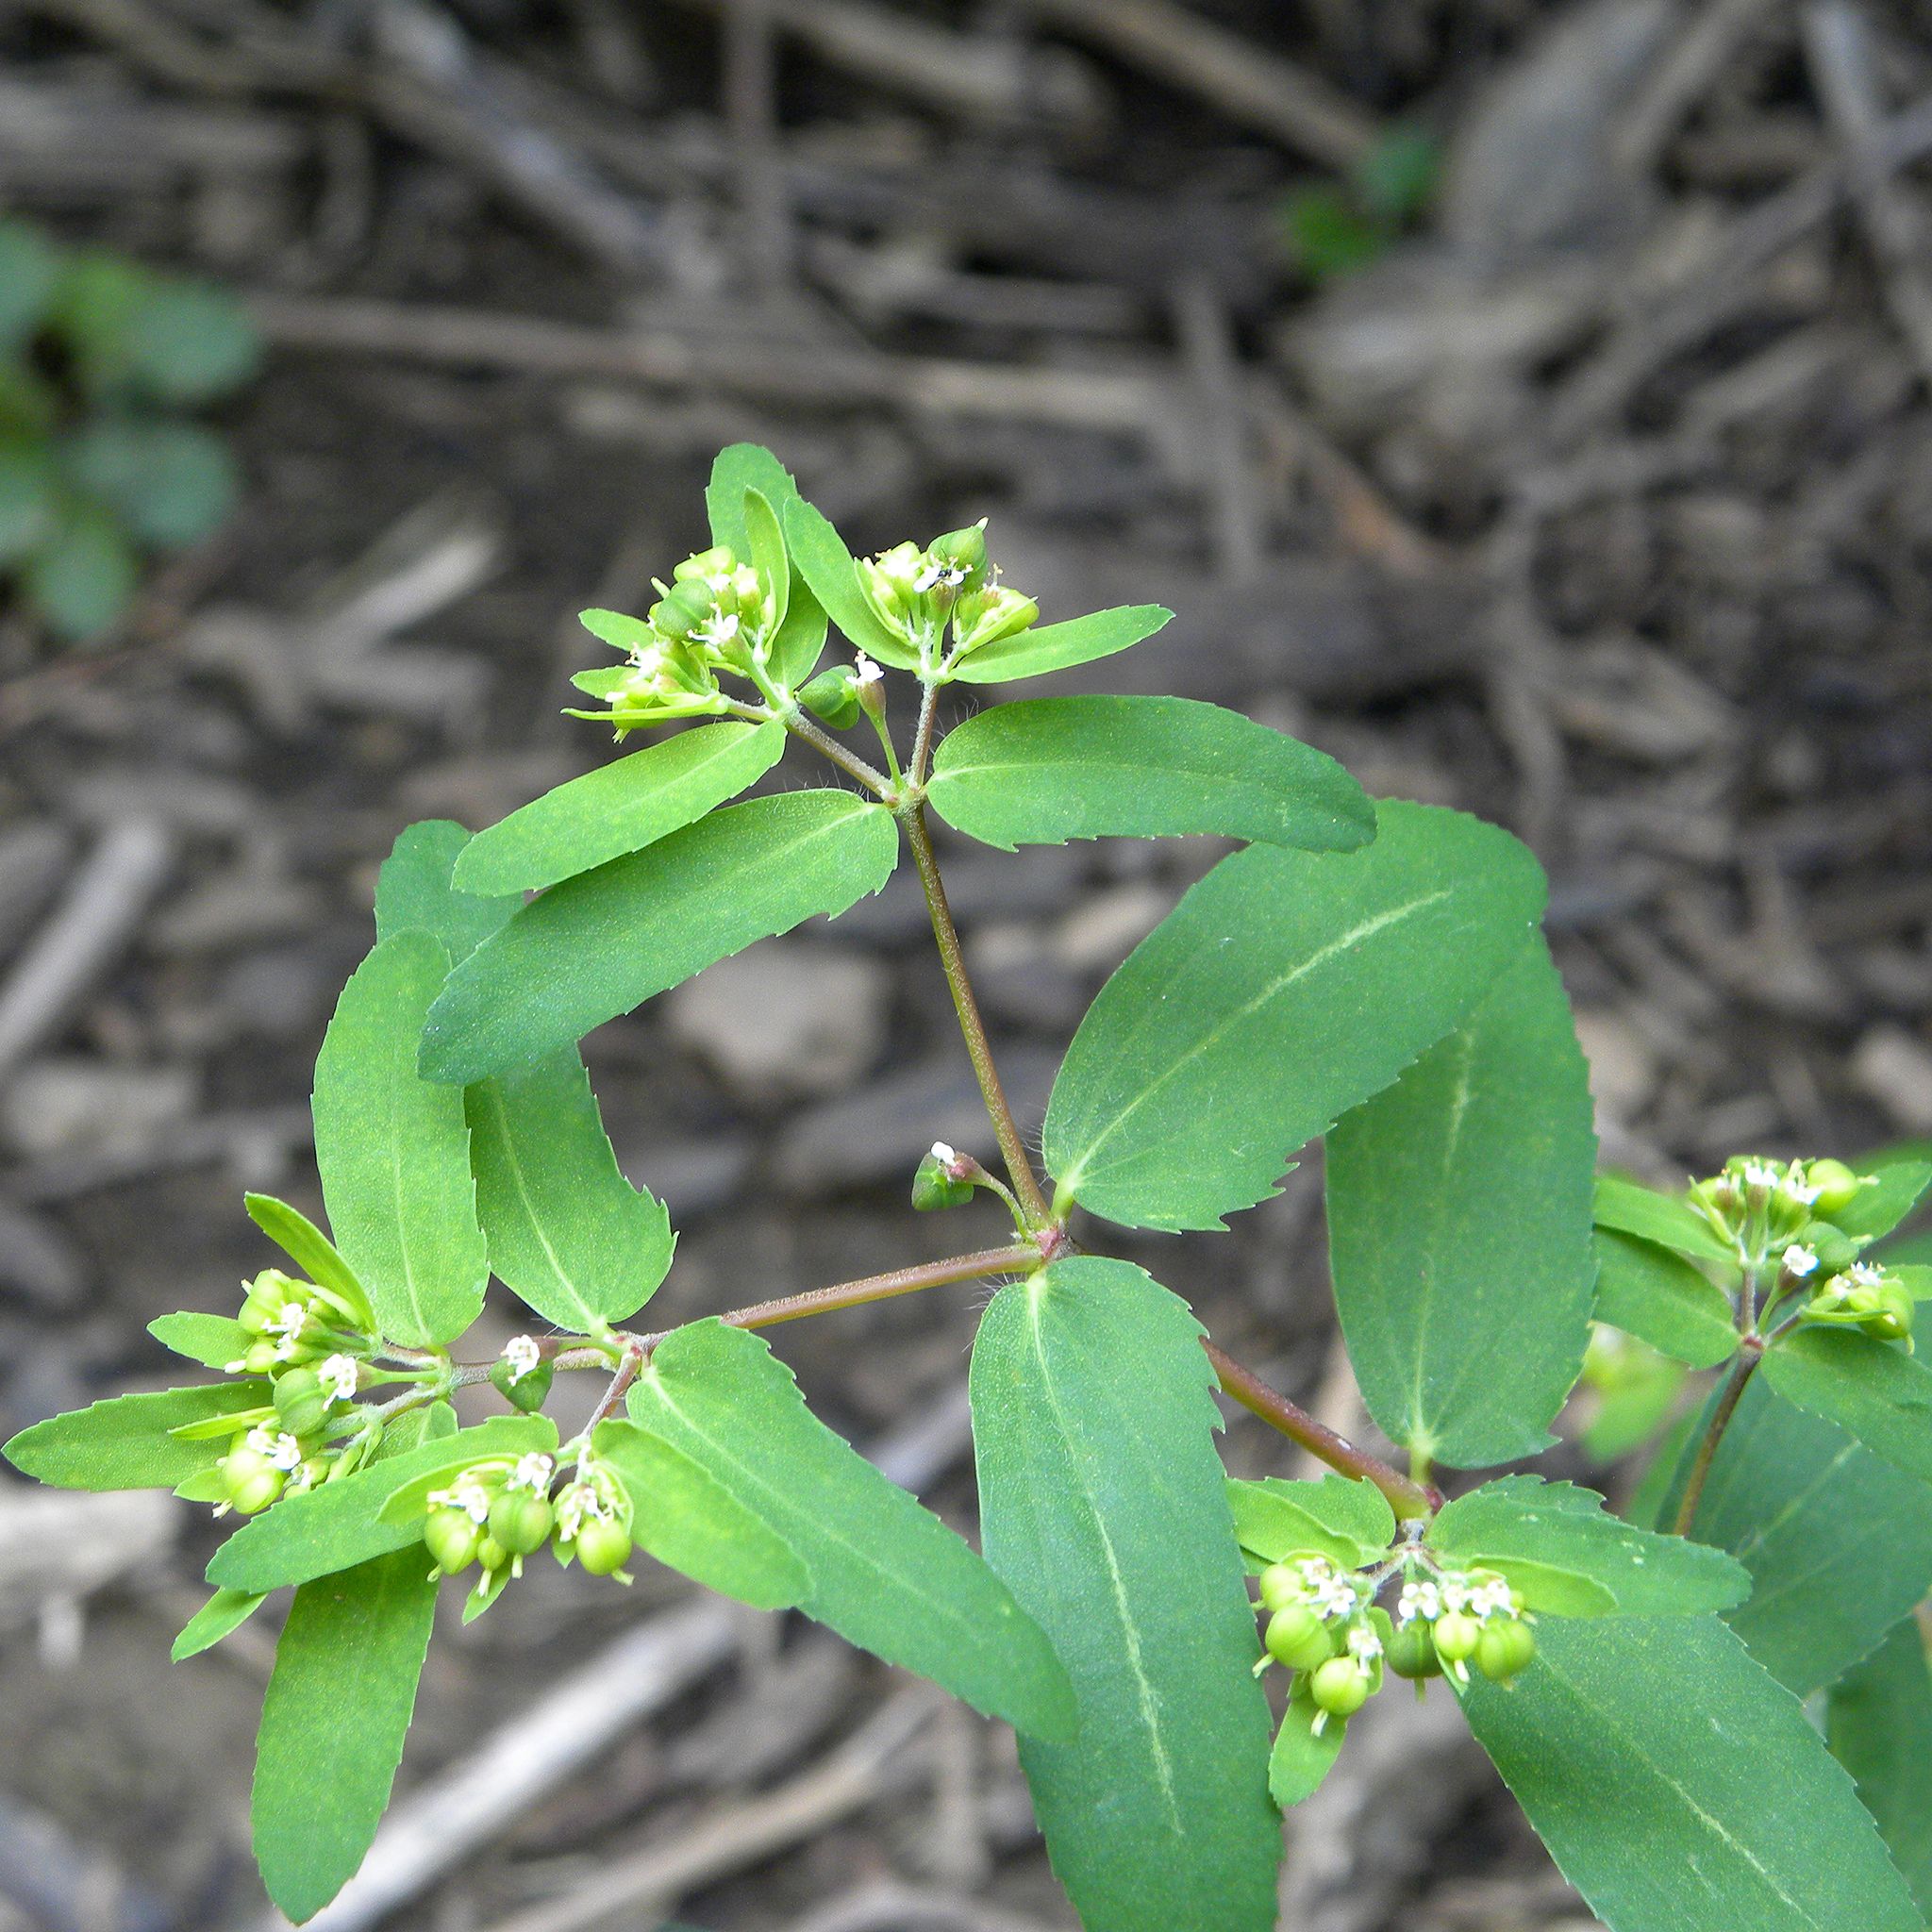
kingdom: Plantae
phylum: Tracheophyta
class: Magnoliopsida
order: Malpighiales
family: Euphorbiaceae
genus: Euphorbia
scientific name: Euphorbia nutans
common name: Eyebane
